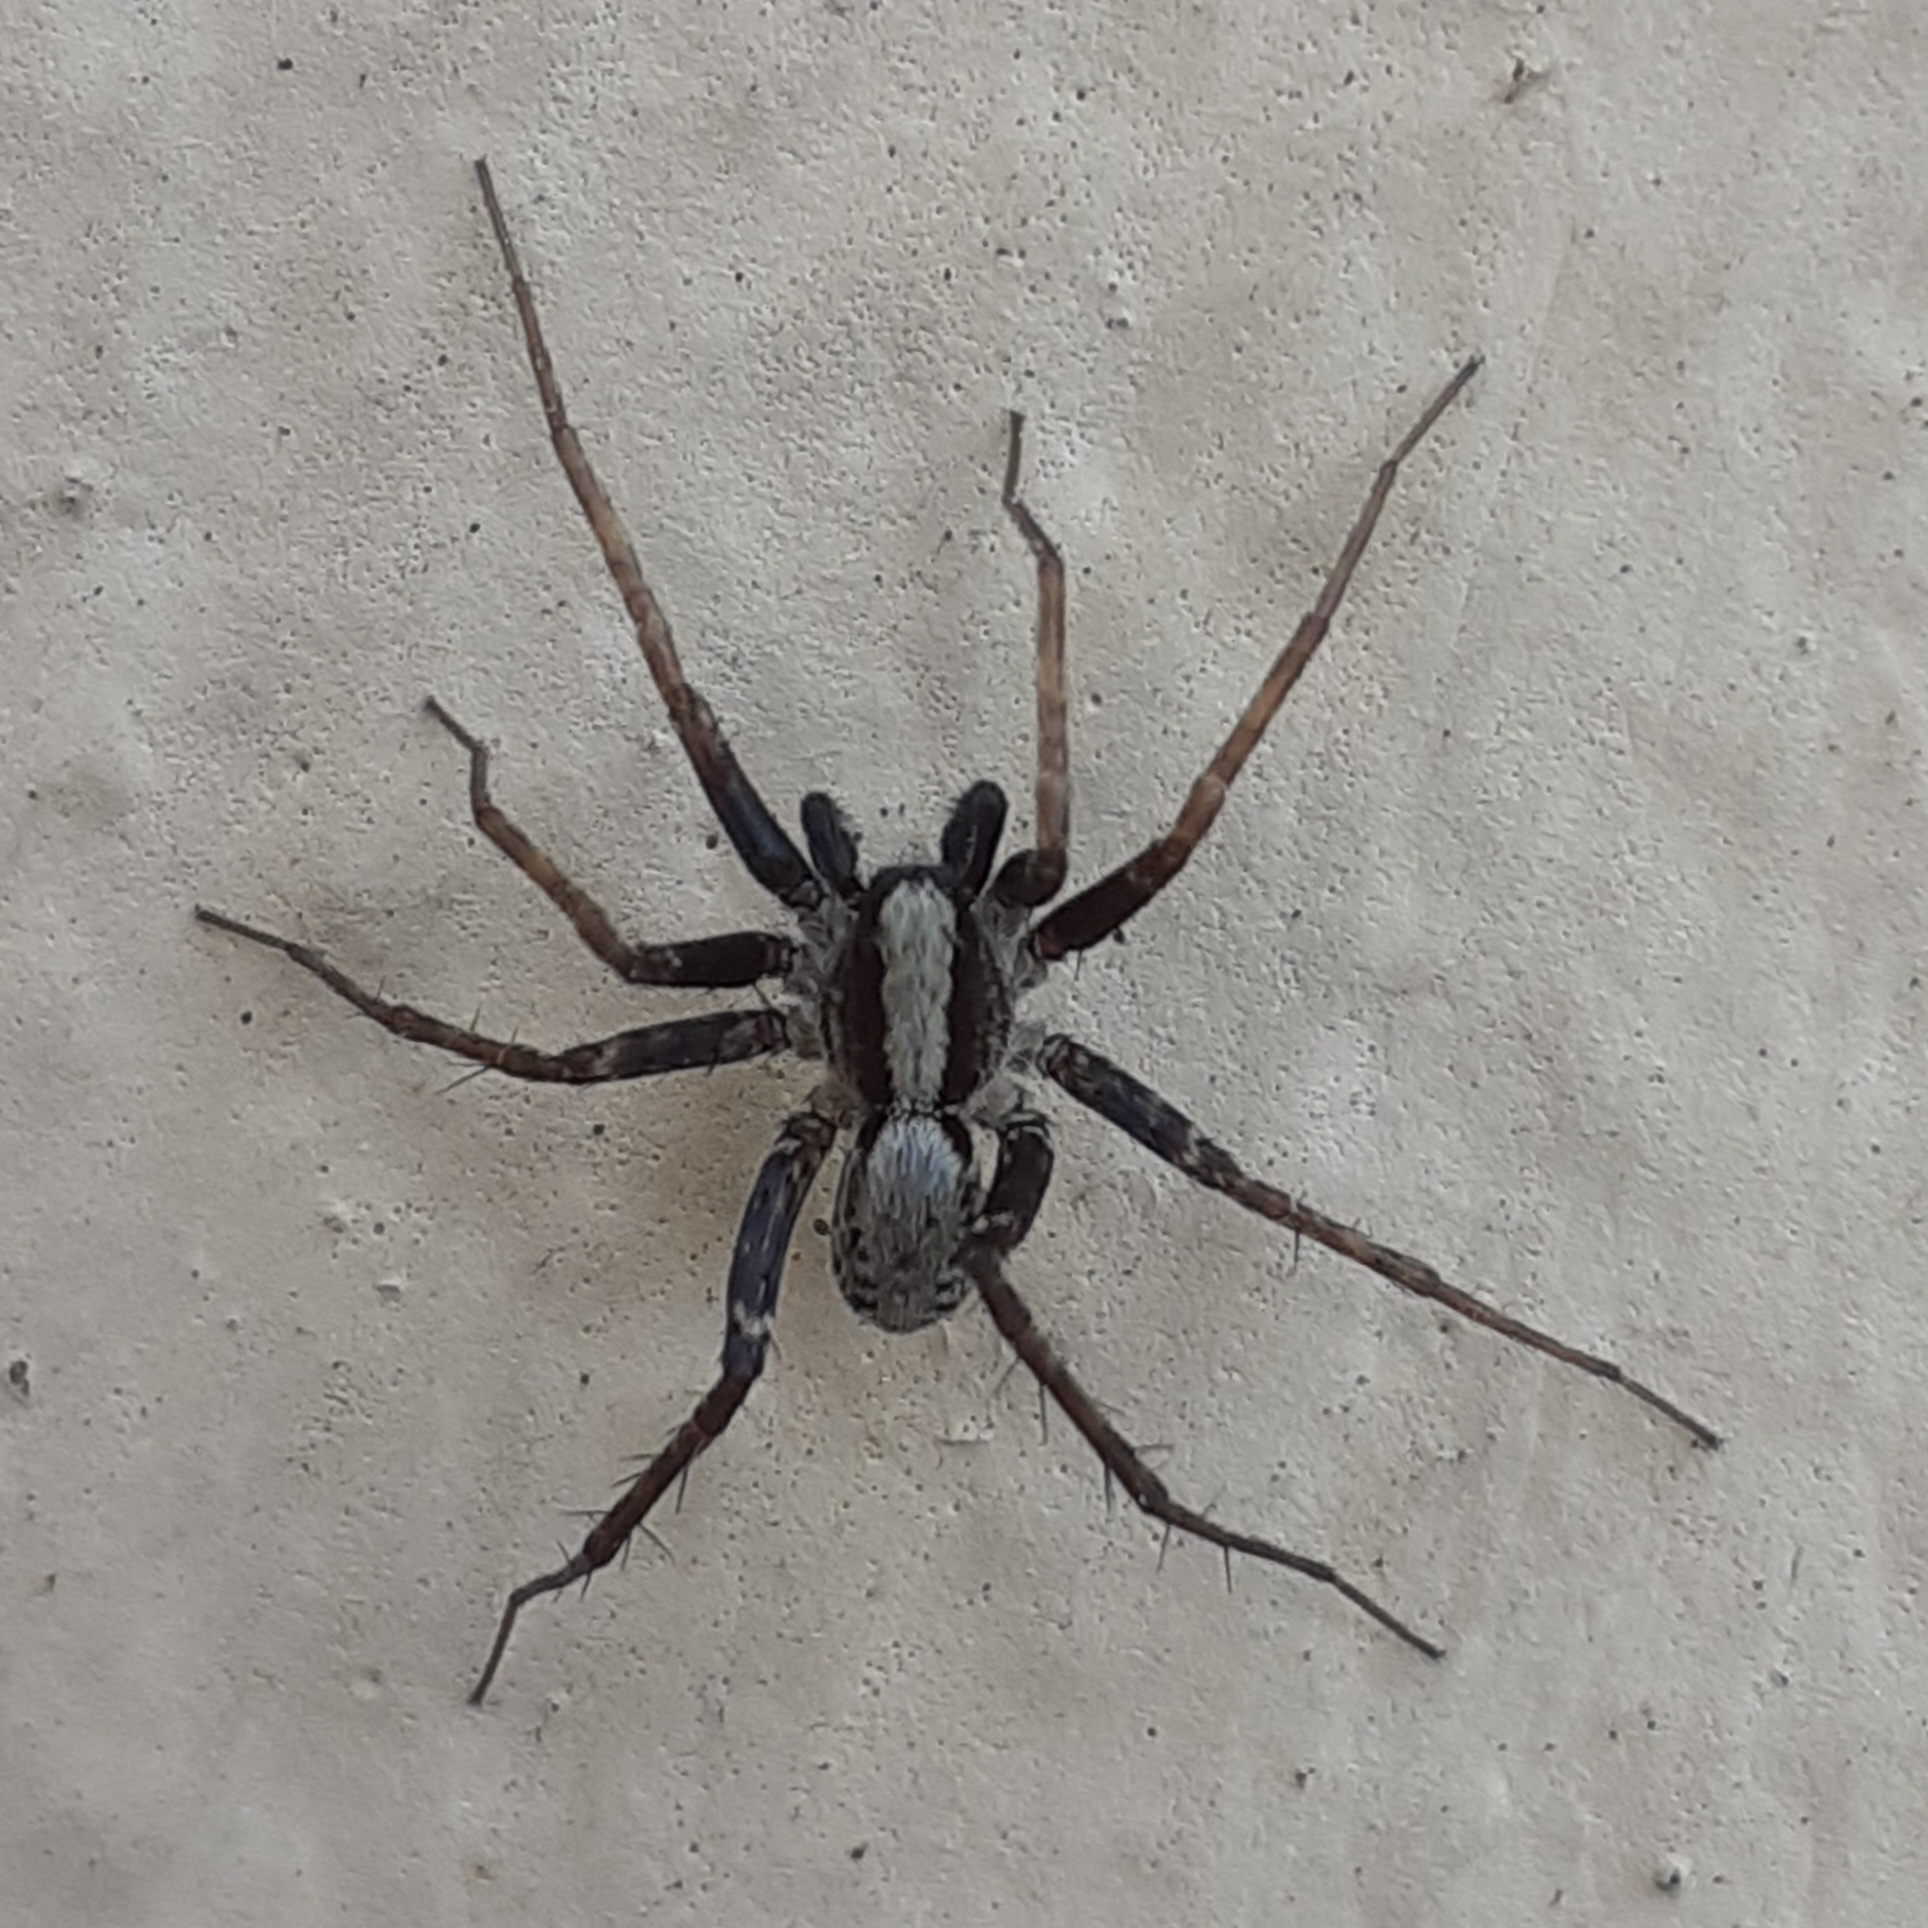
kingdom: Animalia
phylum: Arthropoda
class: Arachnida
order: Araneae
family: Lycosidae
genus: Pardosa
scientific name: Pardosa
